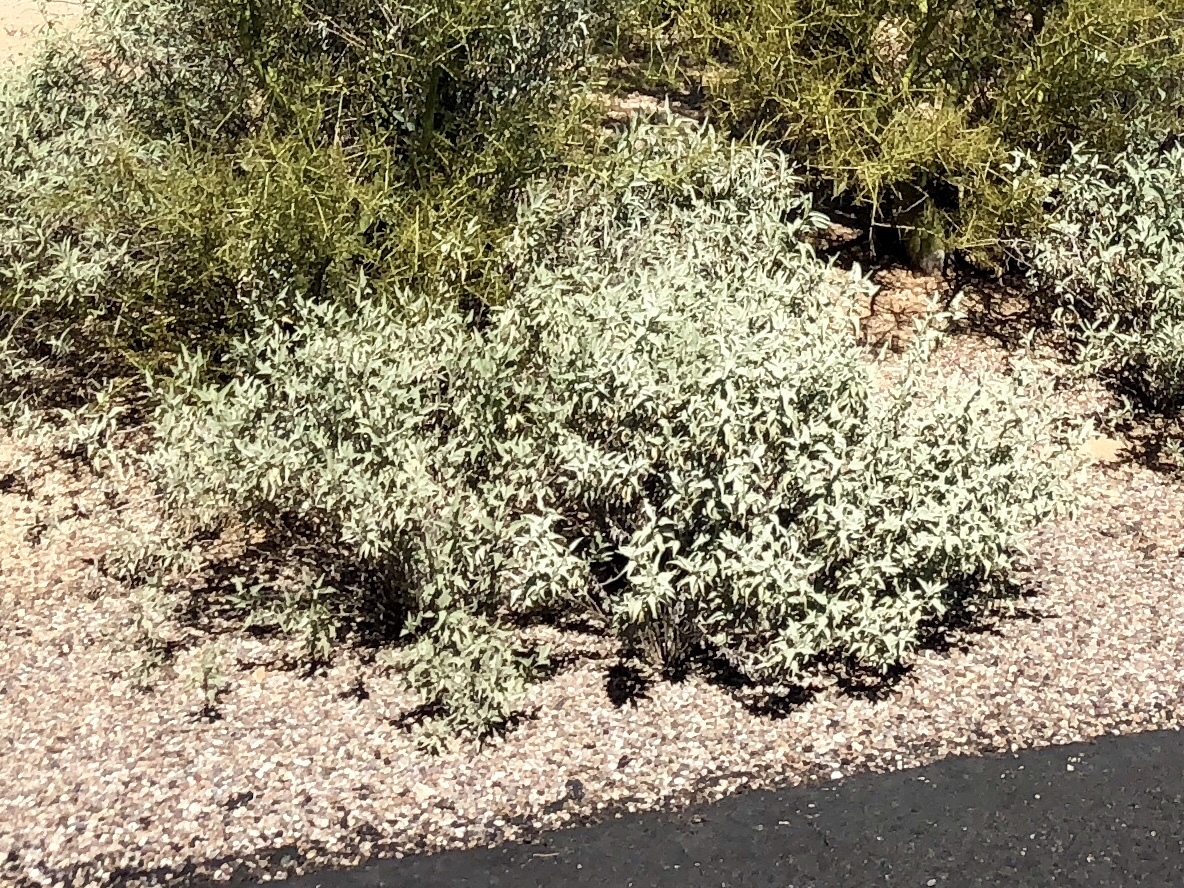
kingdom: Plantae
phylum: Tracheophyta
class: Magnoliopsida
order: Asterales
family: Asteraceae
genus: Ambrosia
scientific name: Ambrosia deltoidea
